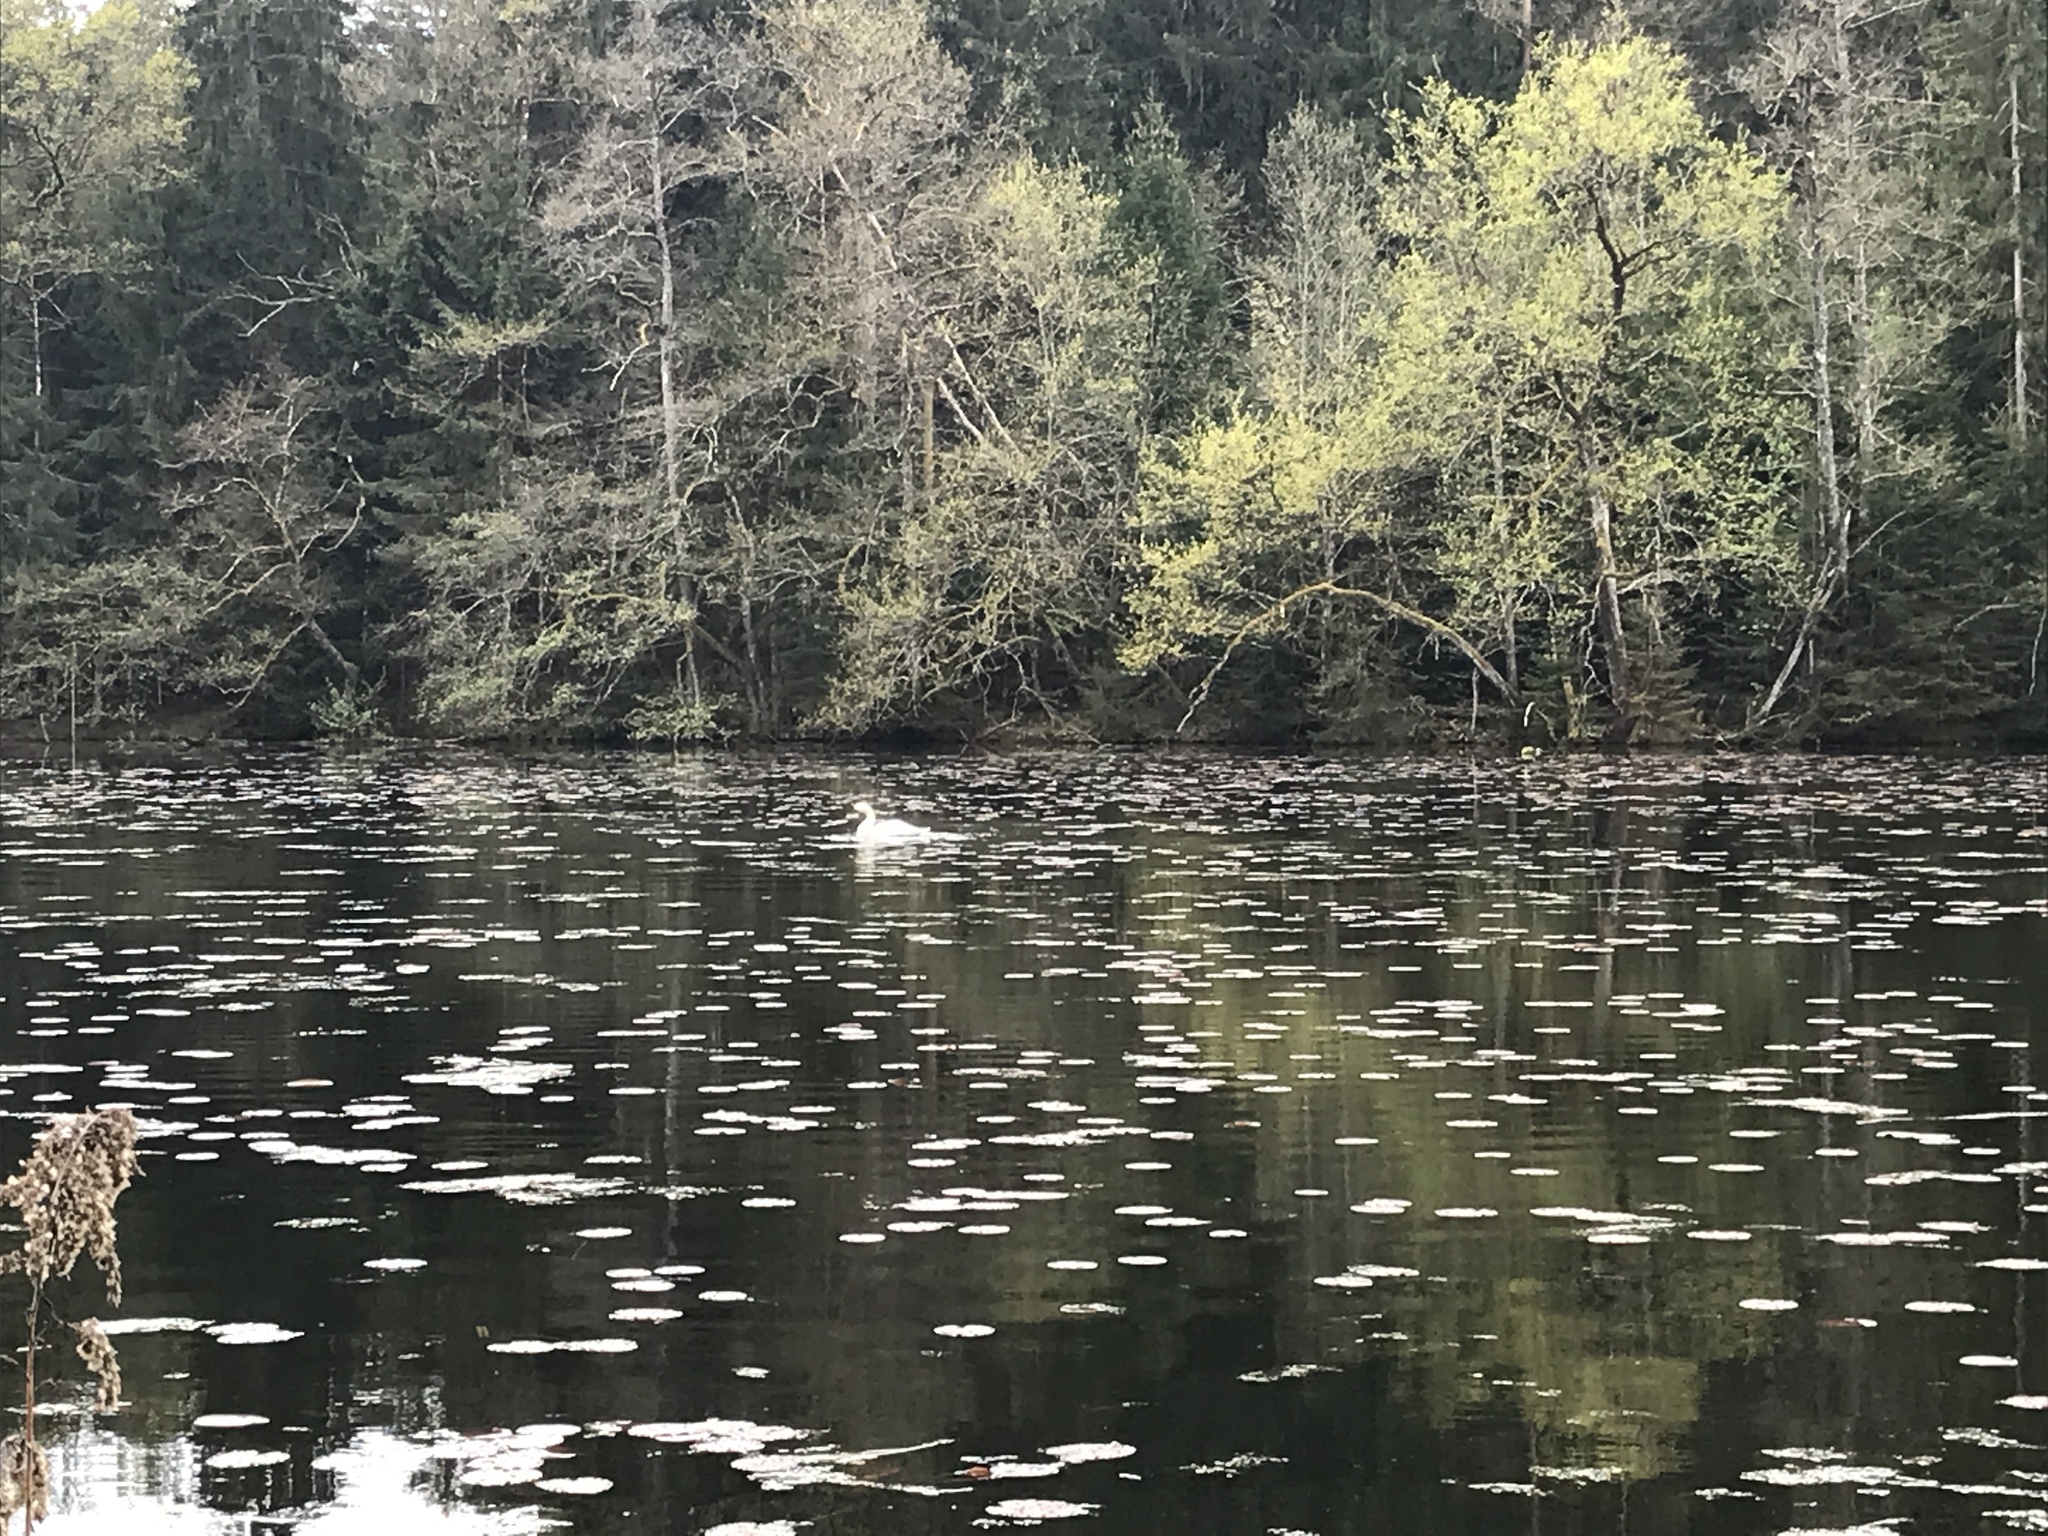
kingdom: Animalia
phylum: Chordata
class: Aves
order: Anseriformes
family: Anatidae
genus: Cygnus
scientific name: Cygnus olor
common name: Mute swan
